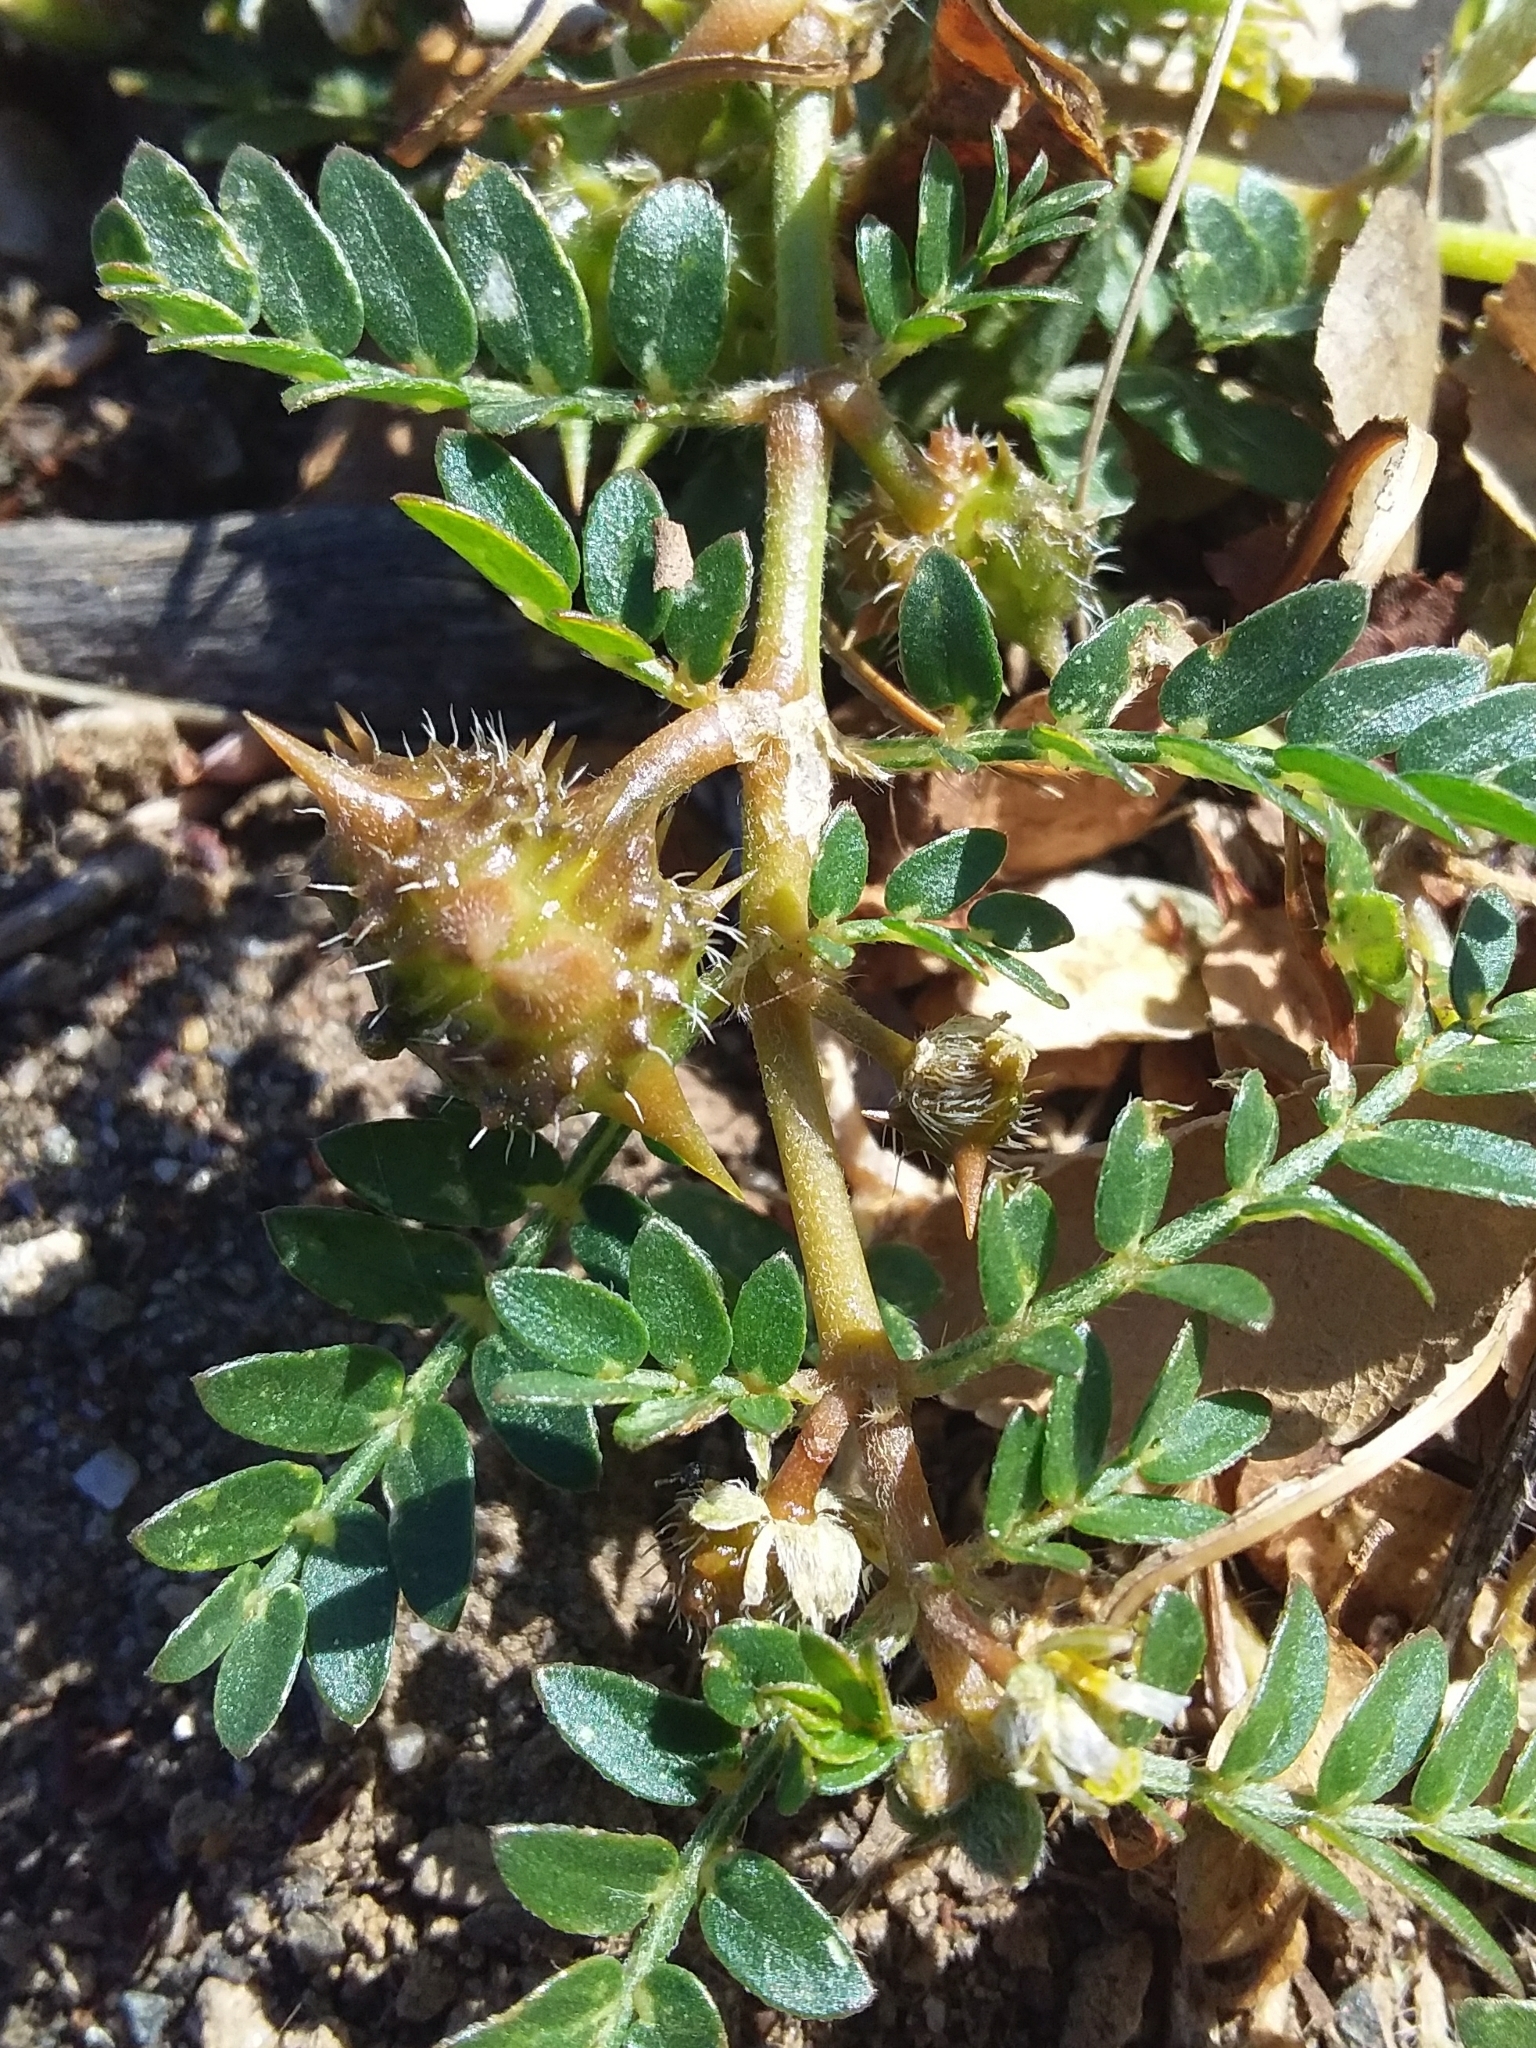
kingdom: Plantae
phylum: Tracheophyta
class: Magnoliopsida
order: Zygophyllales
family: Zygophyllaceae
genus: Tribulus
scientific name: Tribulus terrestris
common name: Puncturevine
